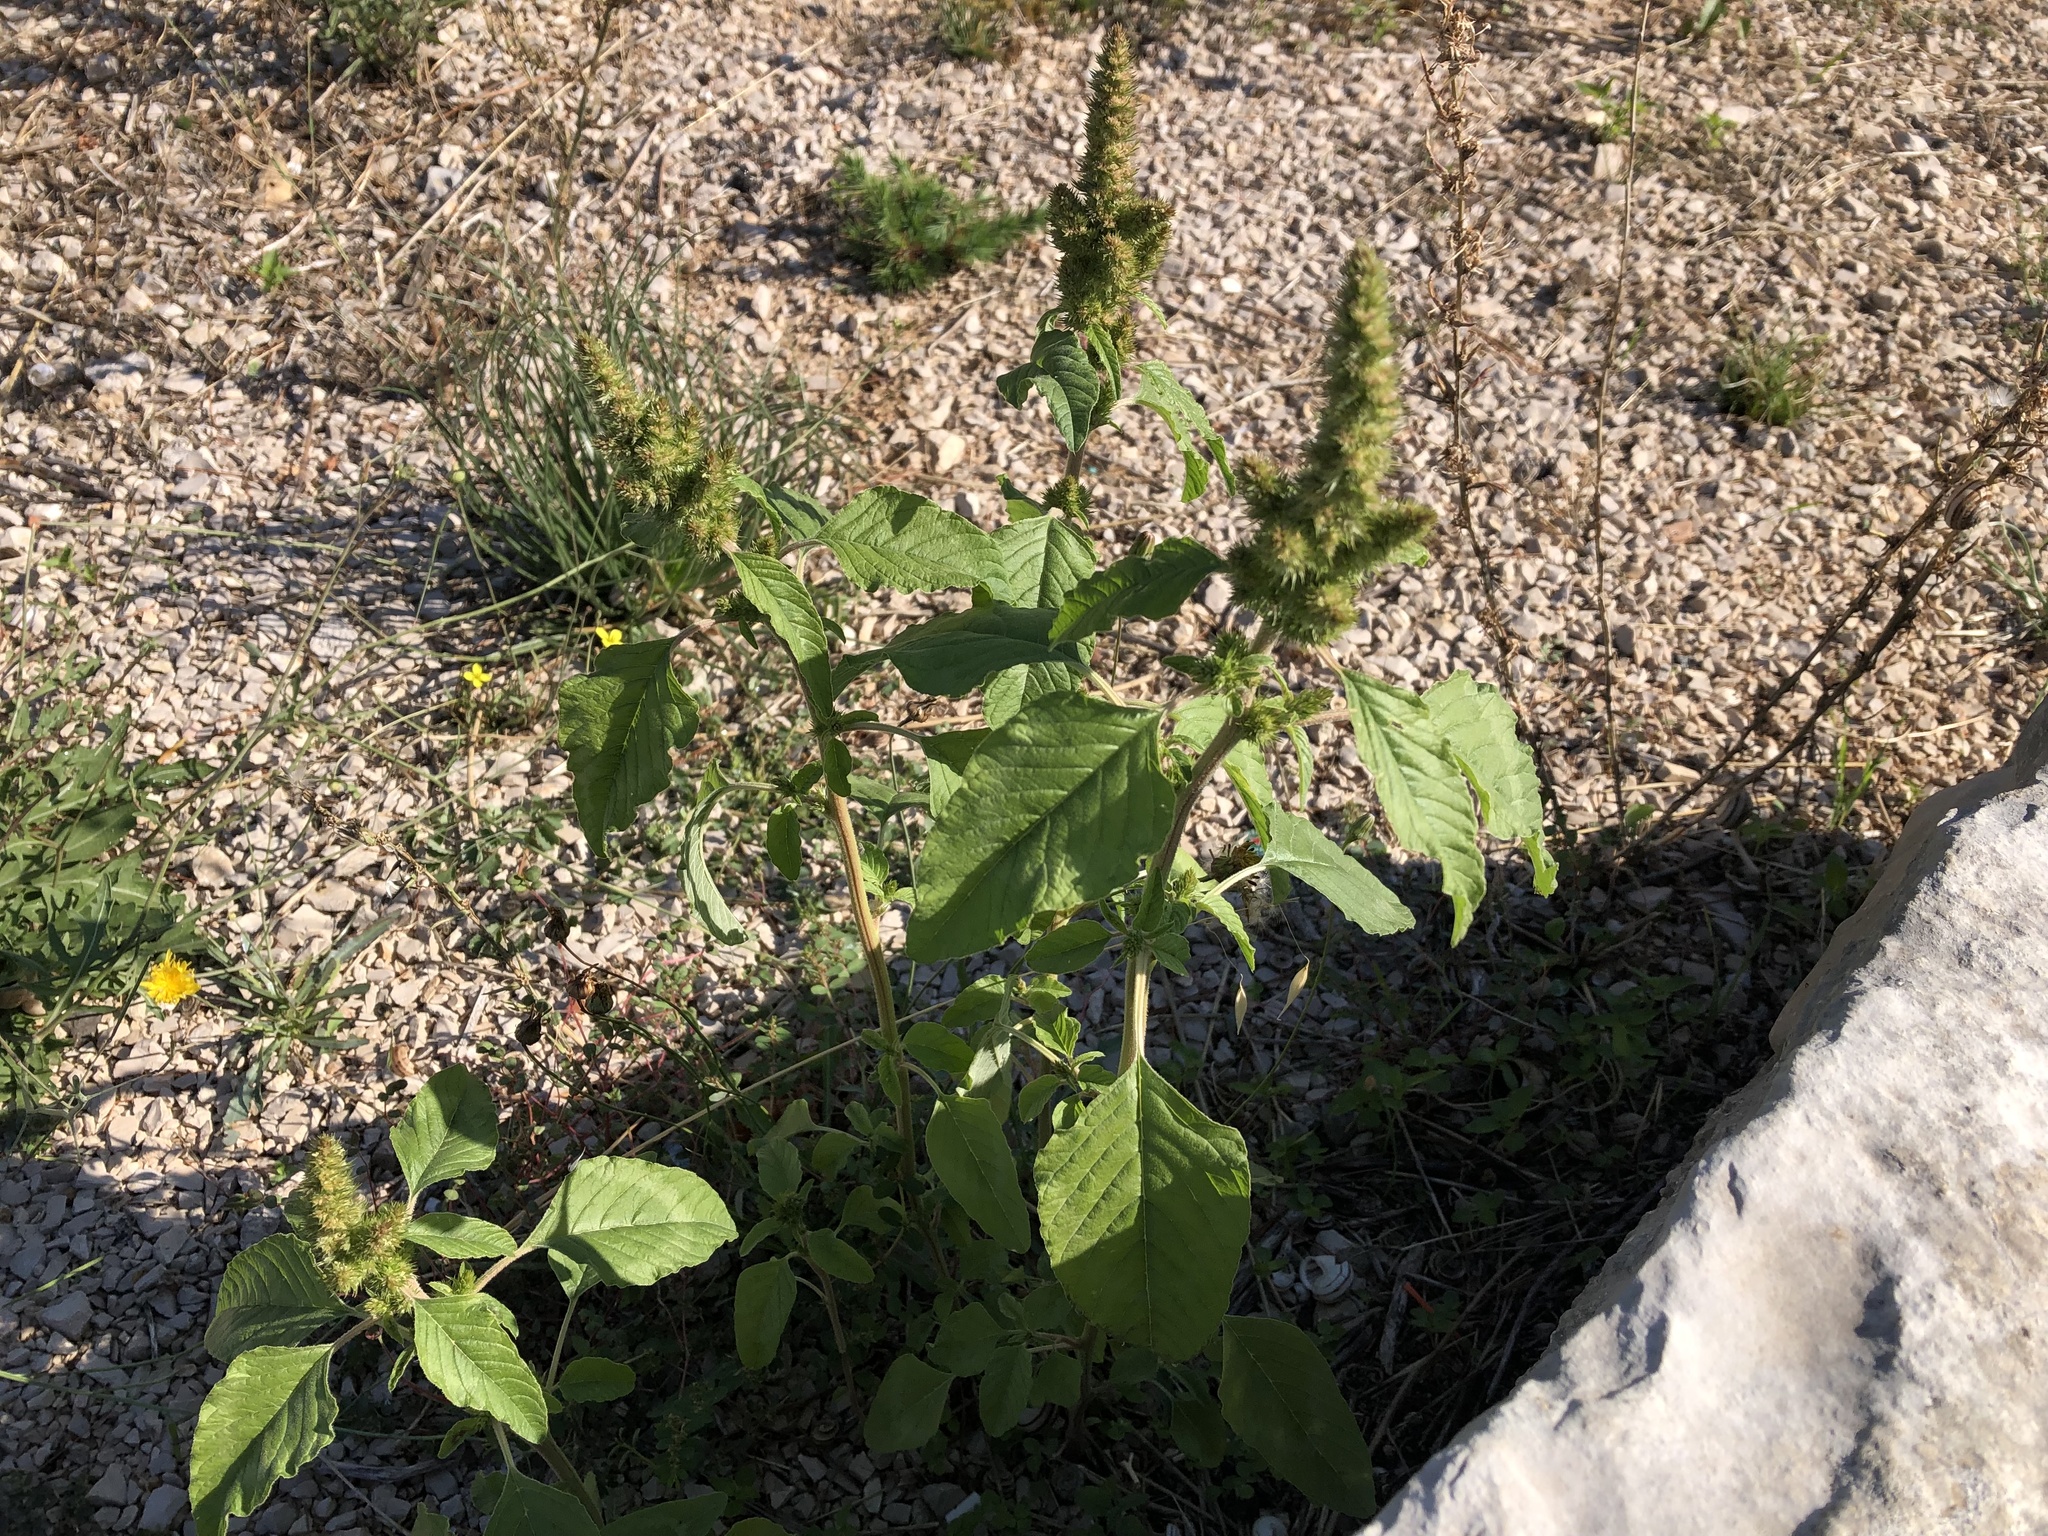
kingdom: Plantae
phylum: Tracheophyta
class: Magnoliopsida
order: Caryophyllales
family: Amaranthaceae
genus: Amaranthus
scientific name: Amaranthus retroflexus
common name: Redroot amaranth
